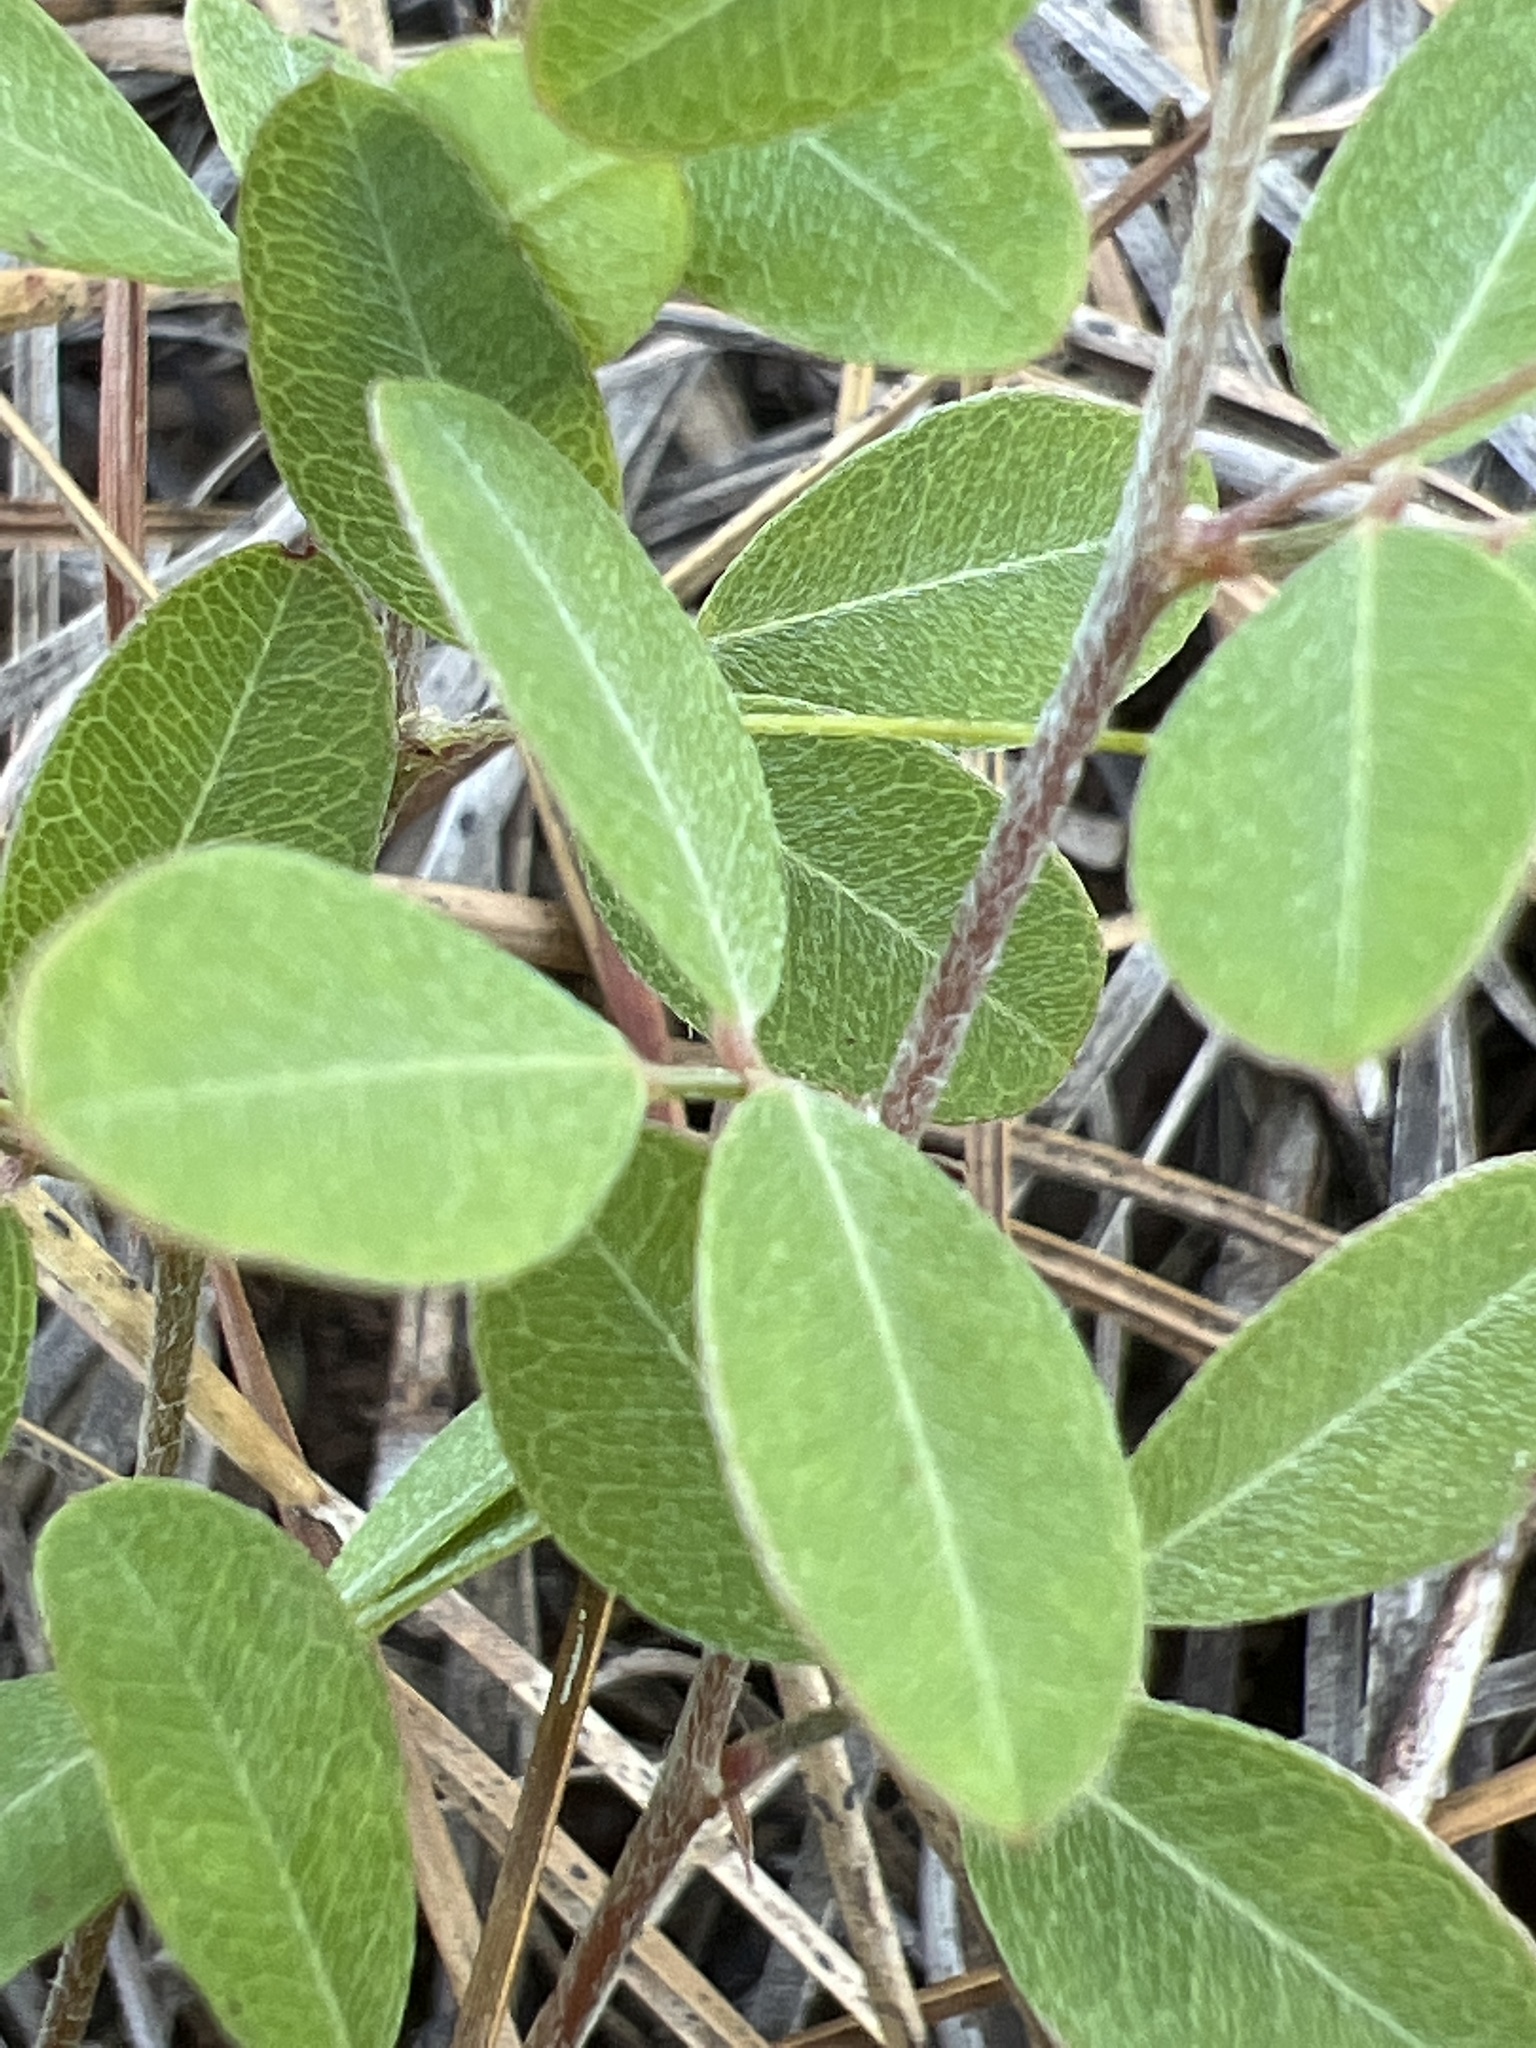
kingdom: Plantae
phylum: Tracheophyta
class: Magnoliopsida
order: Fabales
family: Fabaceae
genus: Lespedeza
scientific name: Lespedeza repens
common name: Creeping bush-clover
